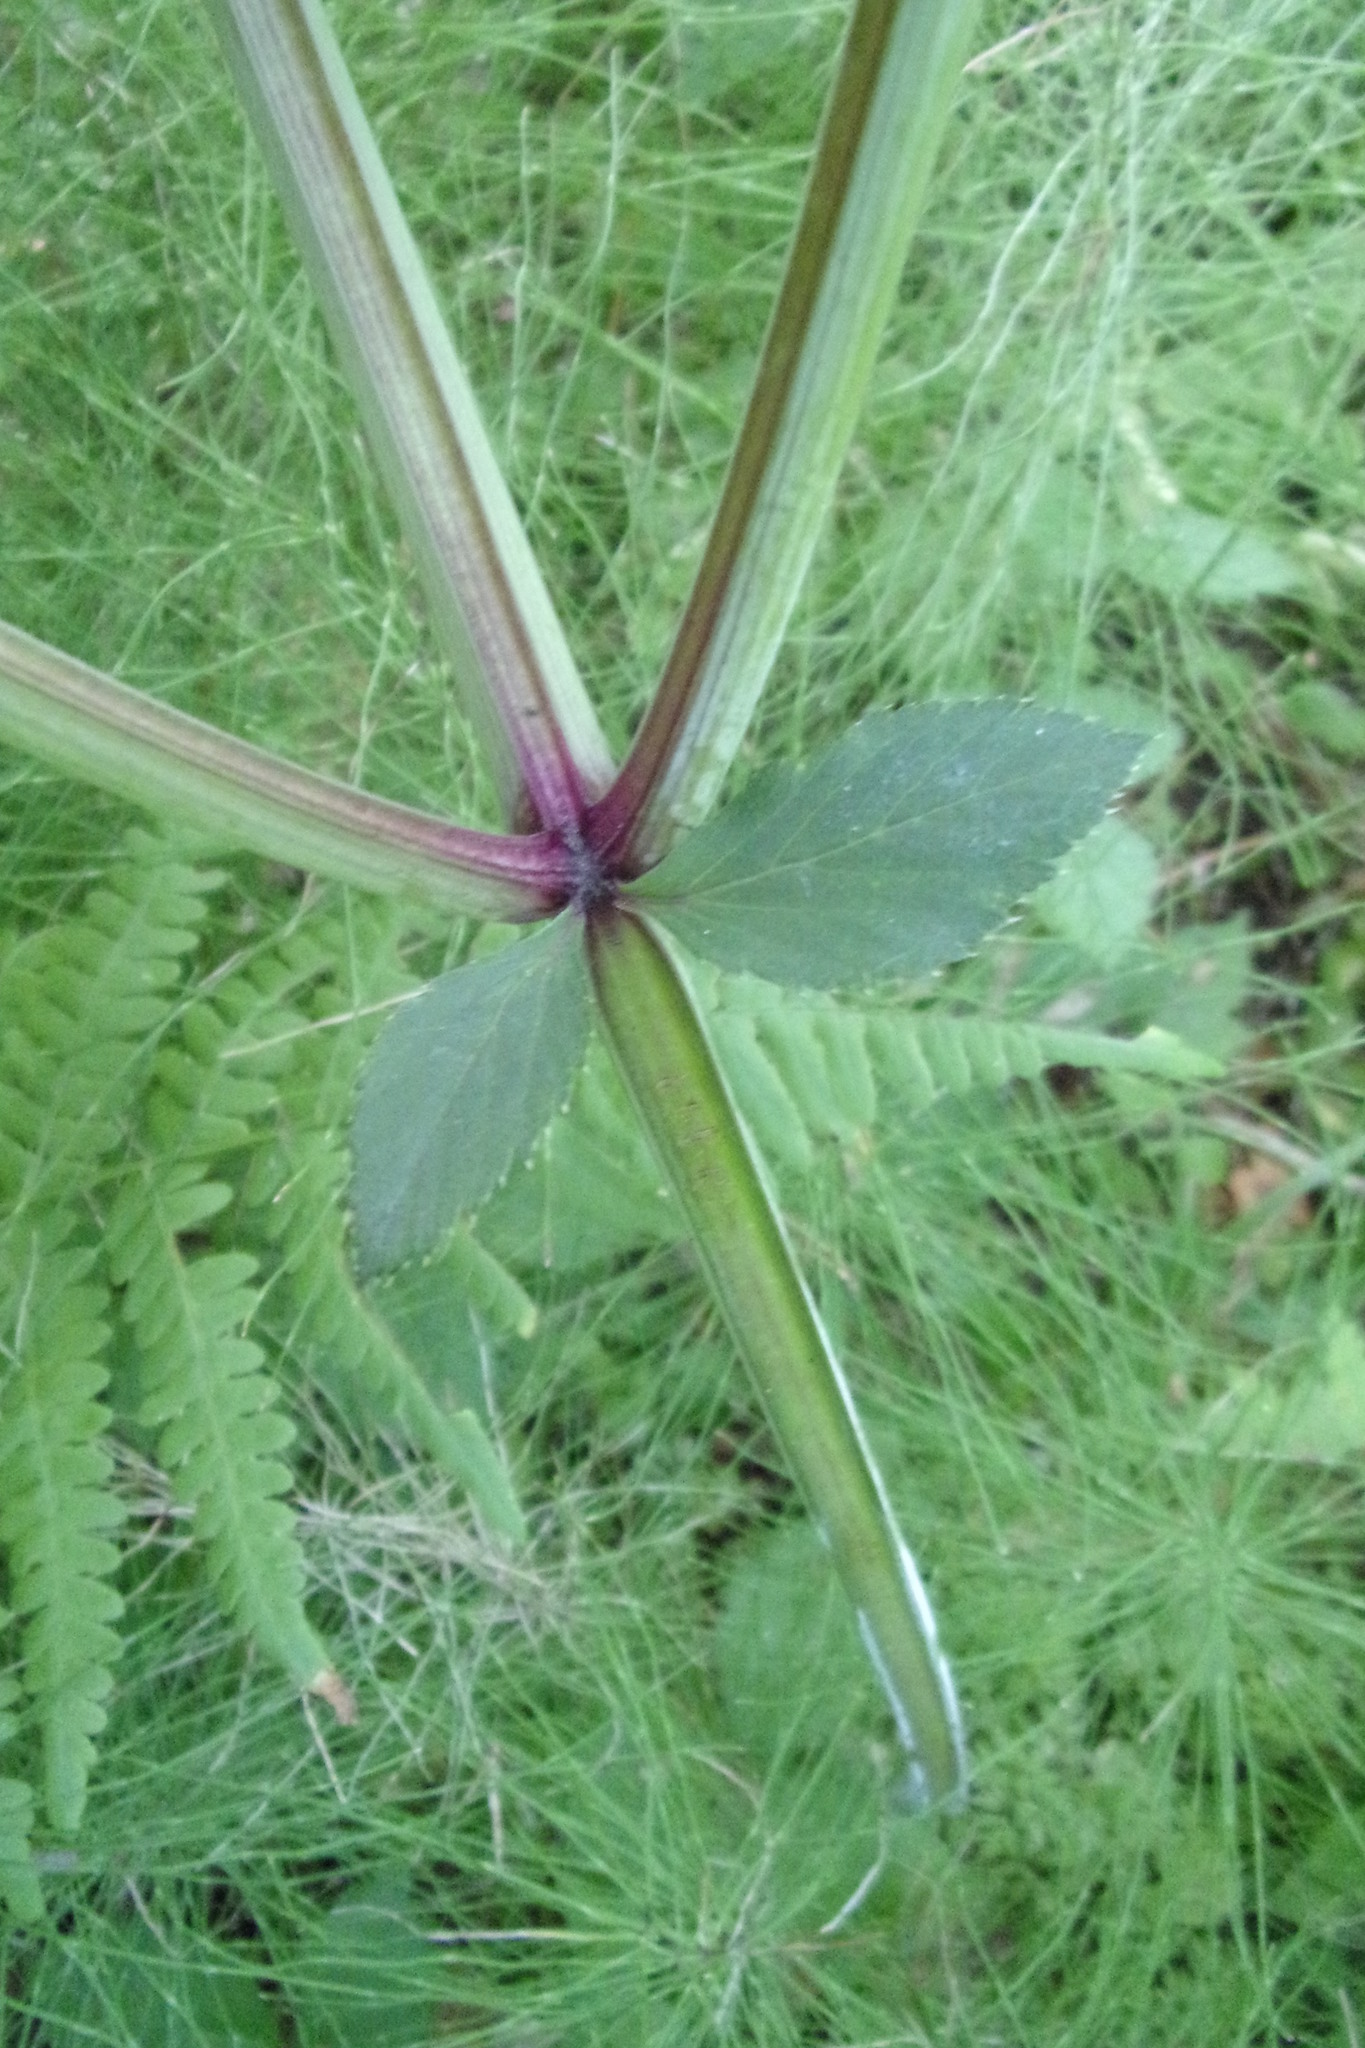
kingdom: Plantae
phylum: Tracheophyta
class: Magnoliopsida
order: Apiales
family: Apiaceae
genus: Angelica
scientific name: Angelica sylvestris
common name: Wild angelica
